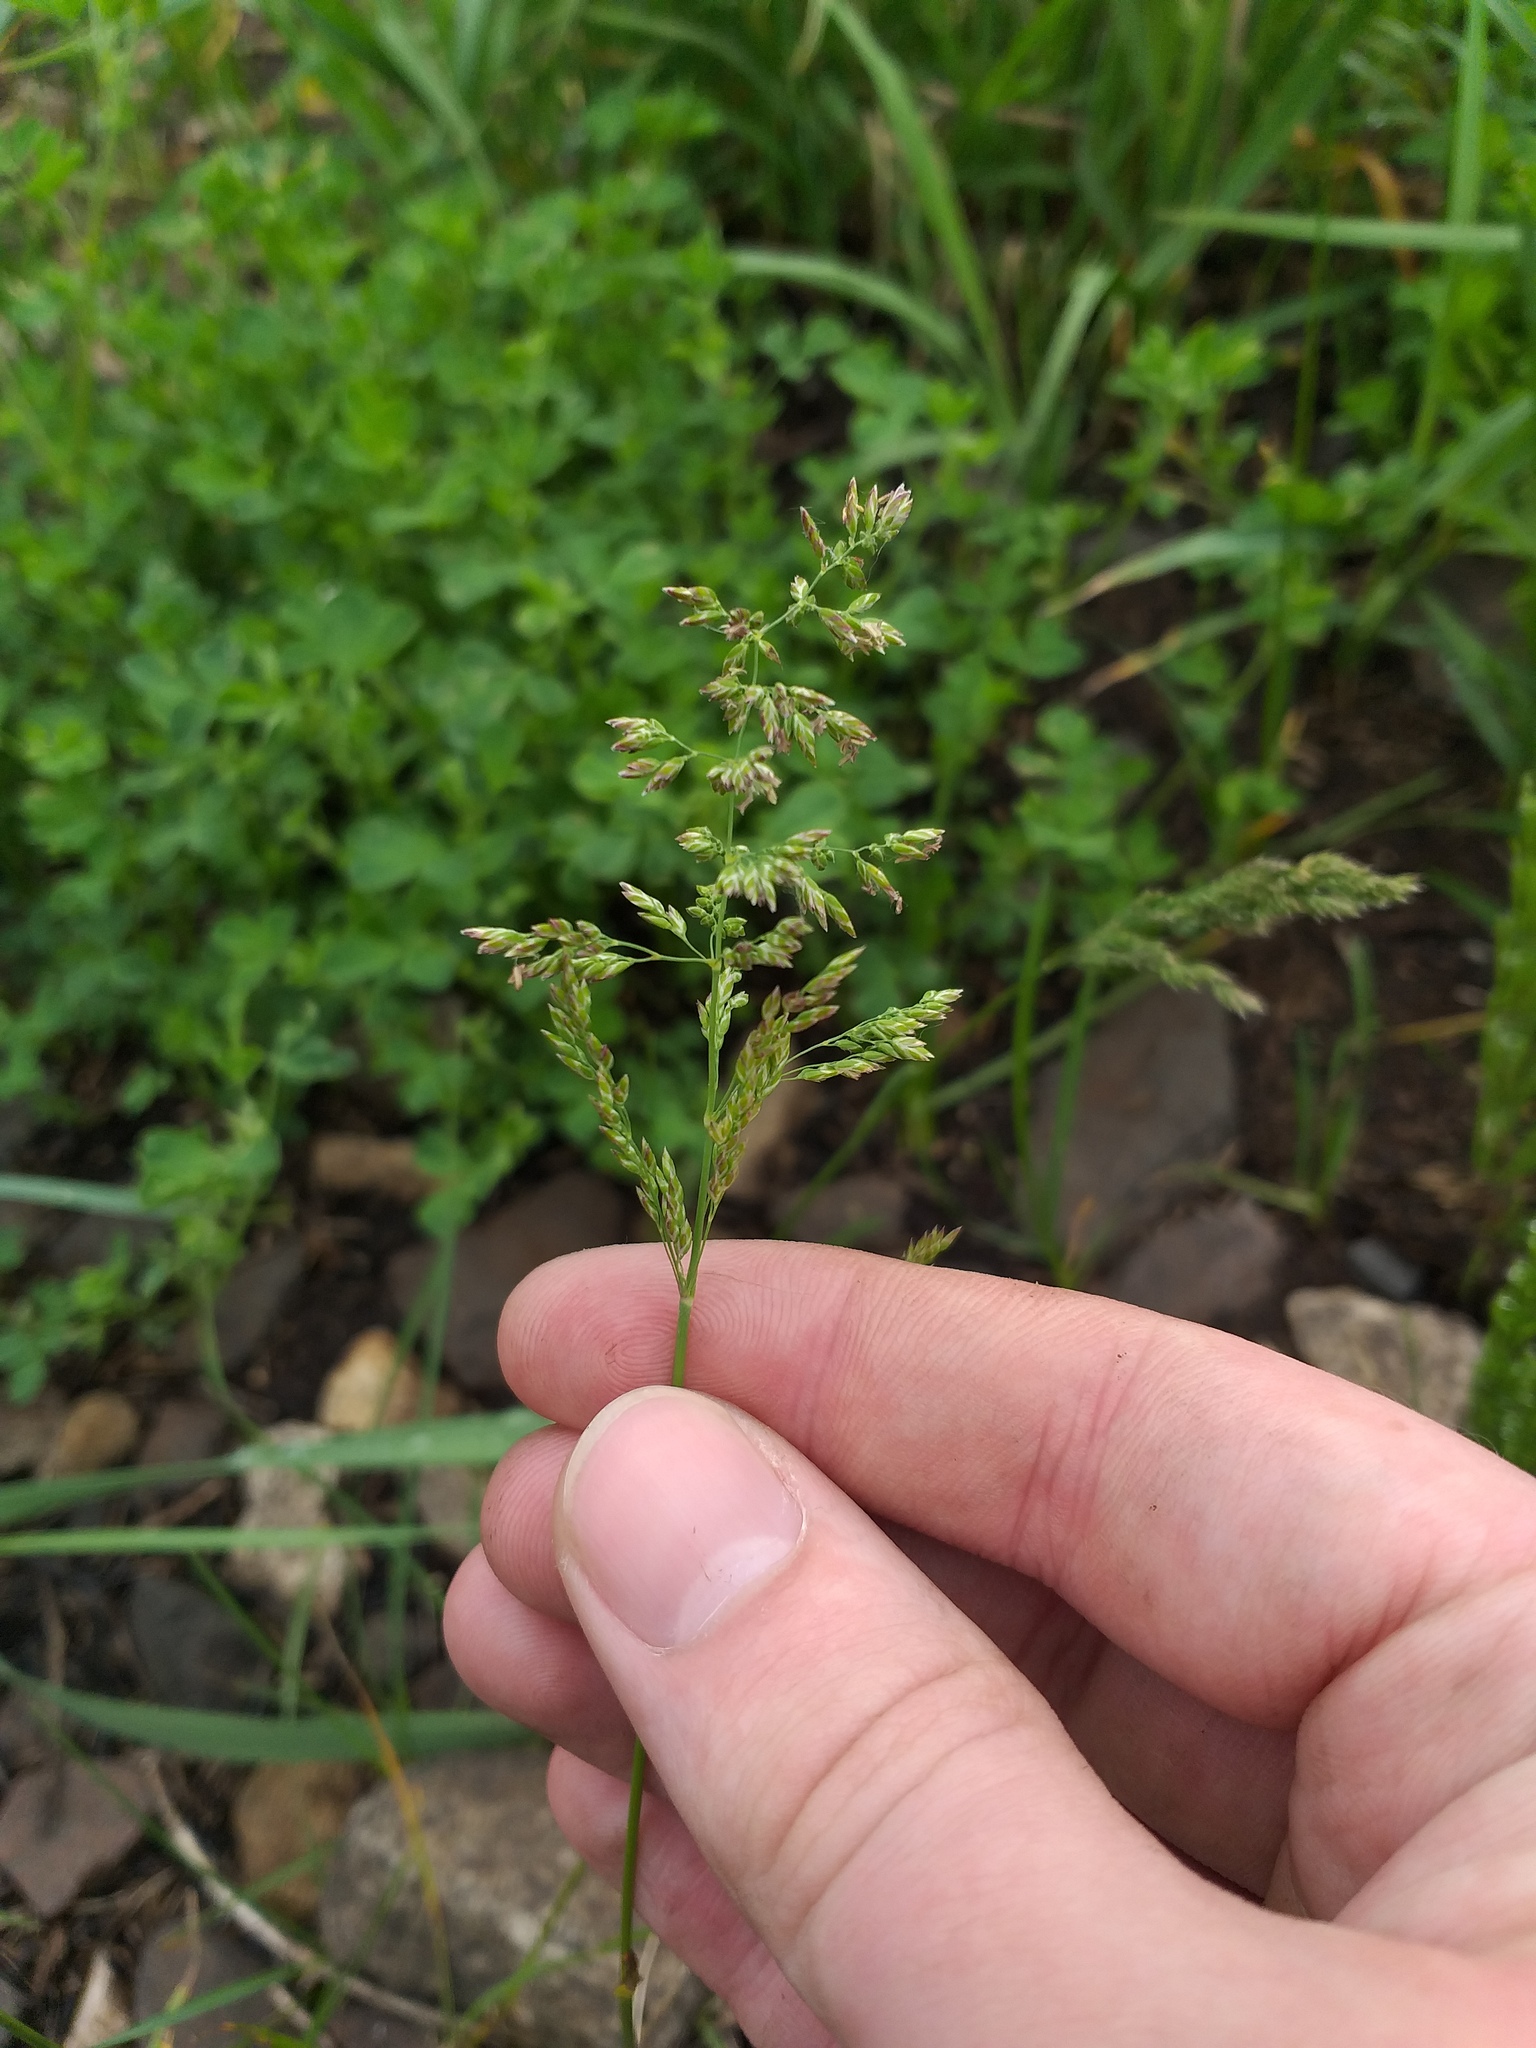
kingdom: Plantae
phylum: Tracheophyta
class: Liliopsida
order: Poales
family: Poaceae
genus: Poa
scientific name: Poa pratensis
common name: Kentucky bluegrass
